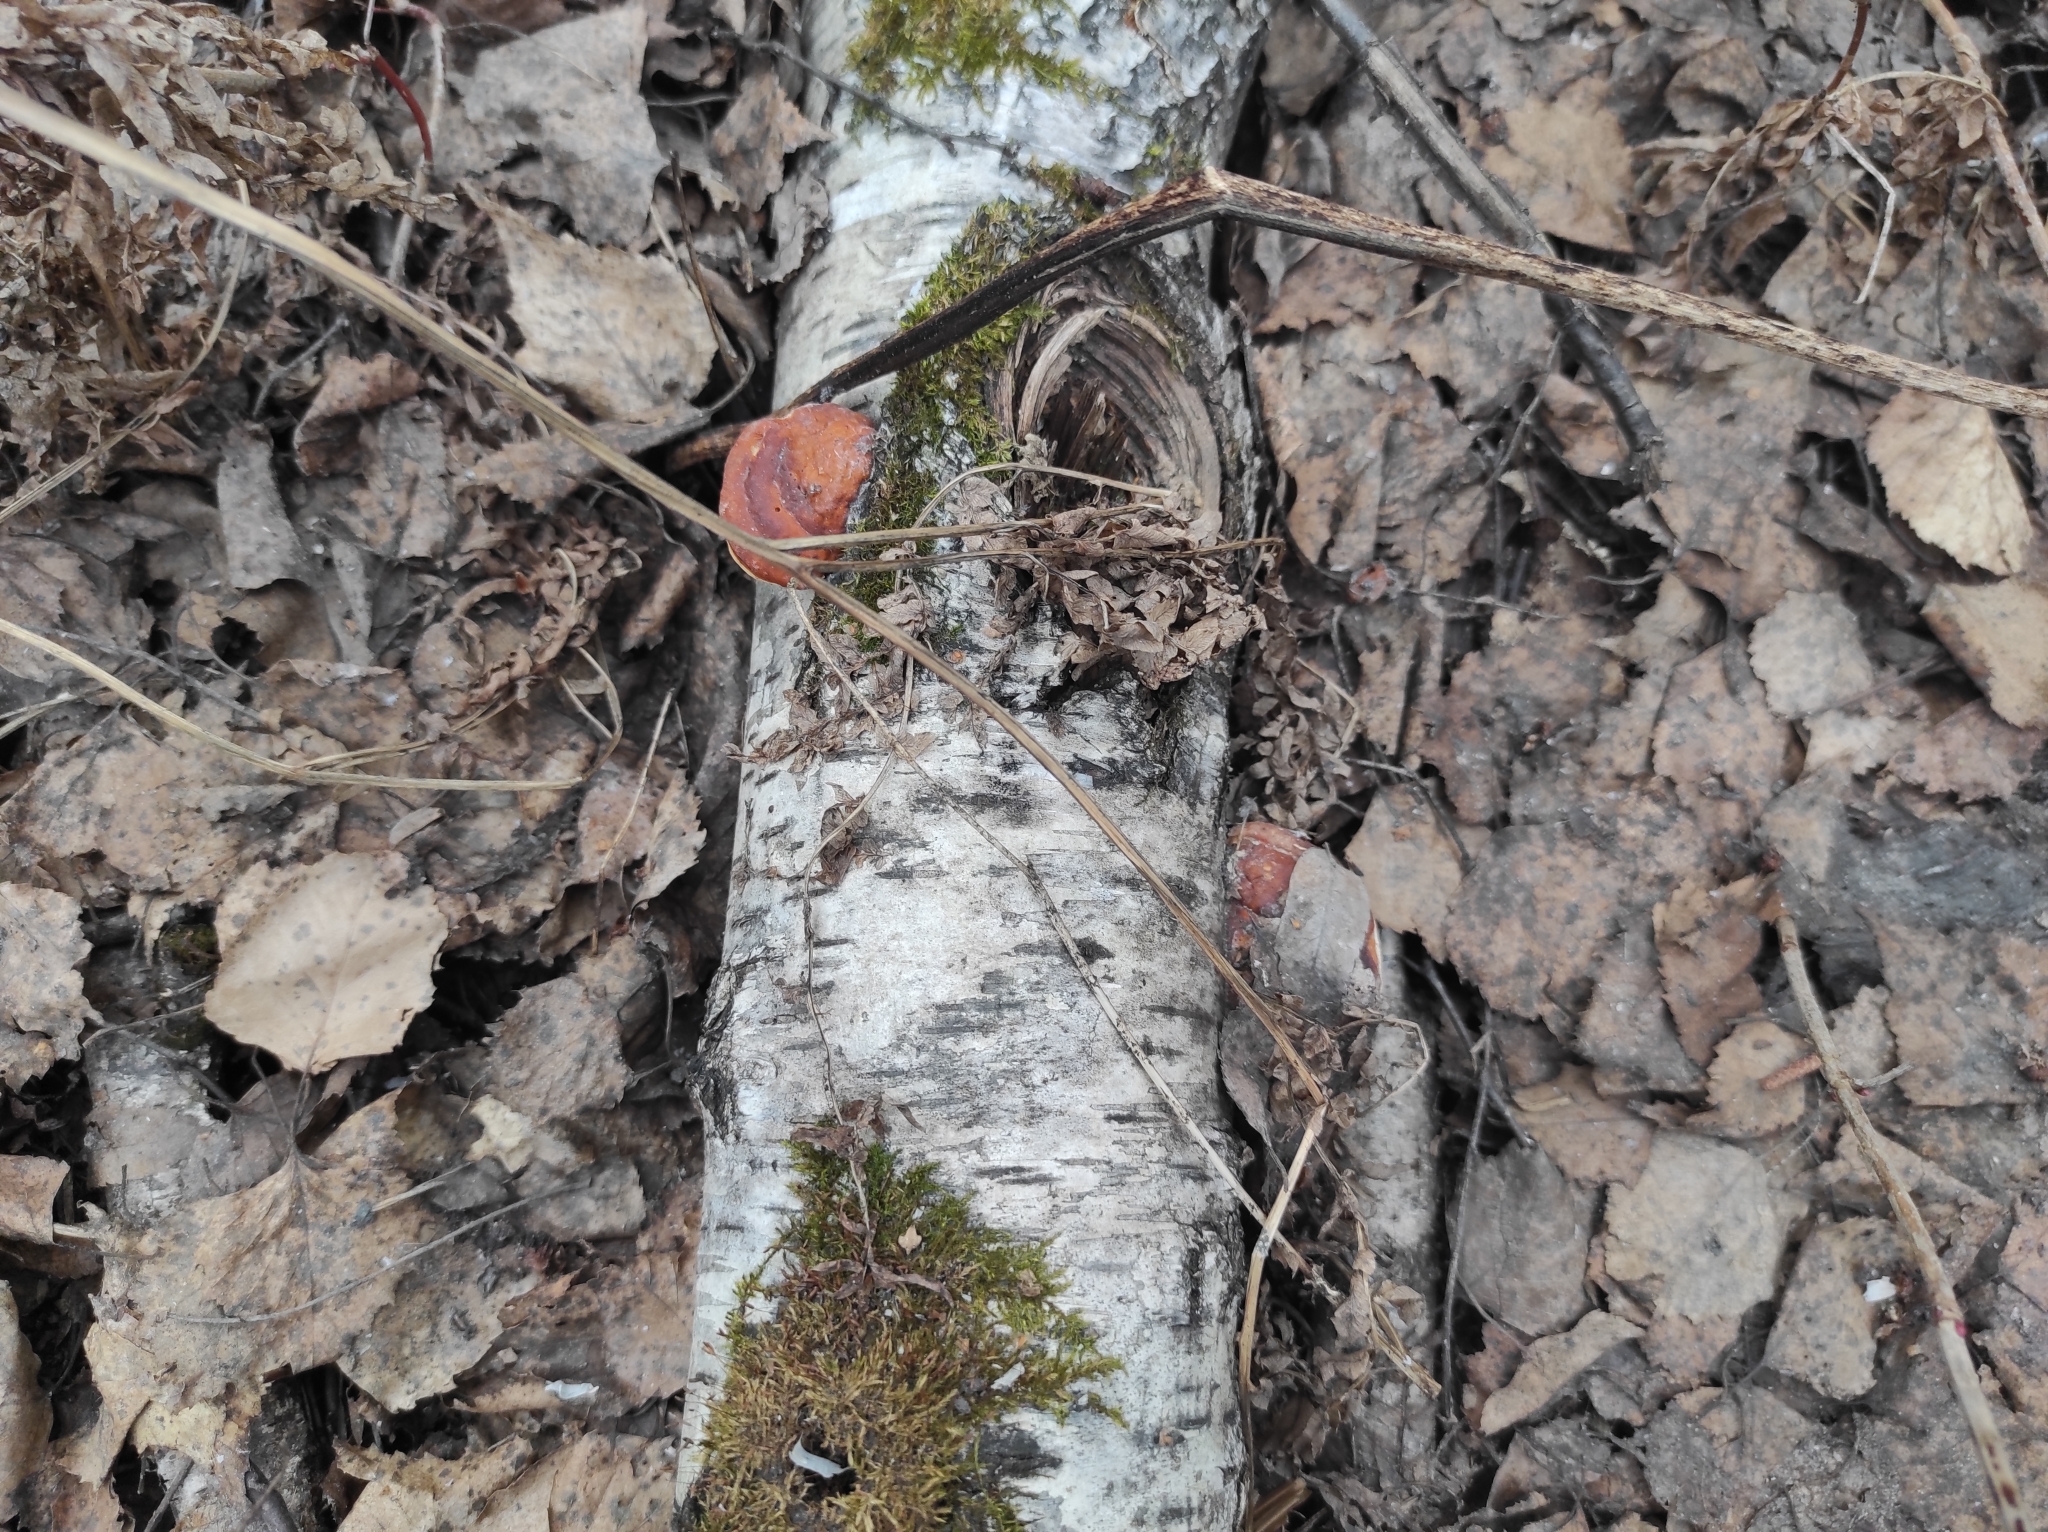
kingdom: Fungi
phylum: Basidiomycota
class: Agaricomycetes
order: Polyporales
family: Fomitopsidaceae
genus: Fomitopsis
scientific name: Fomitopsis pinicola
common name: Red-belted bracket
